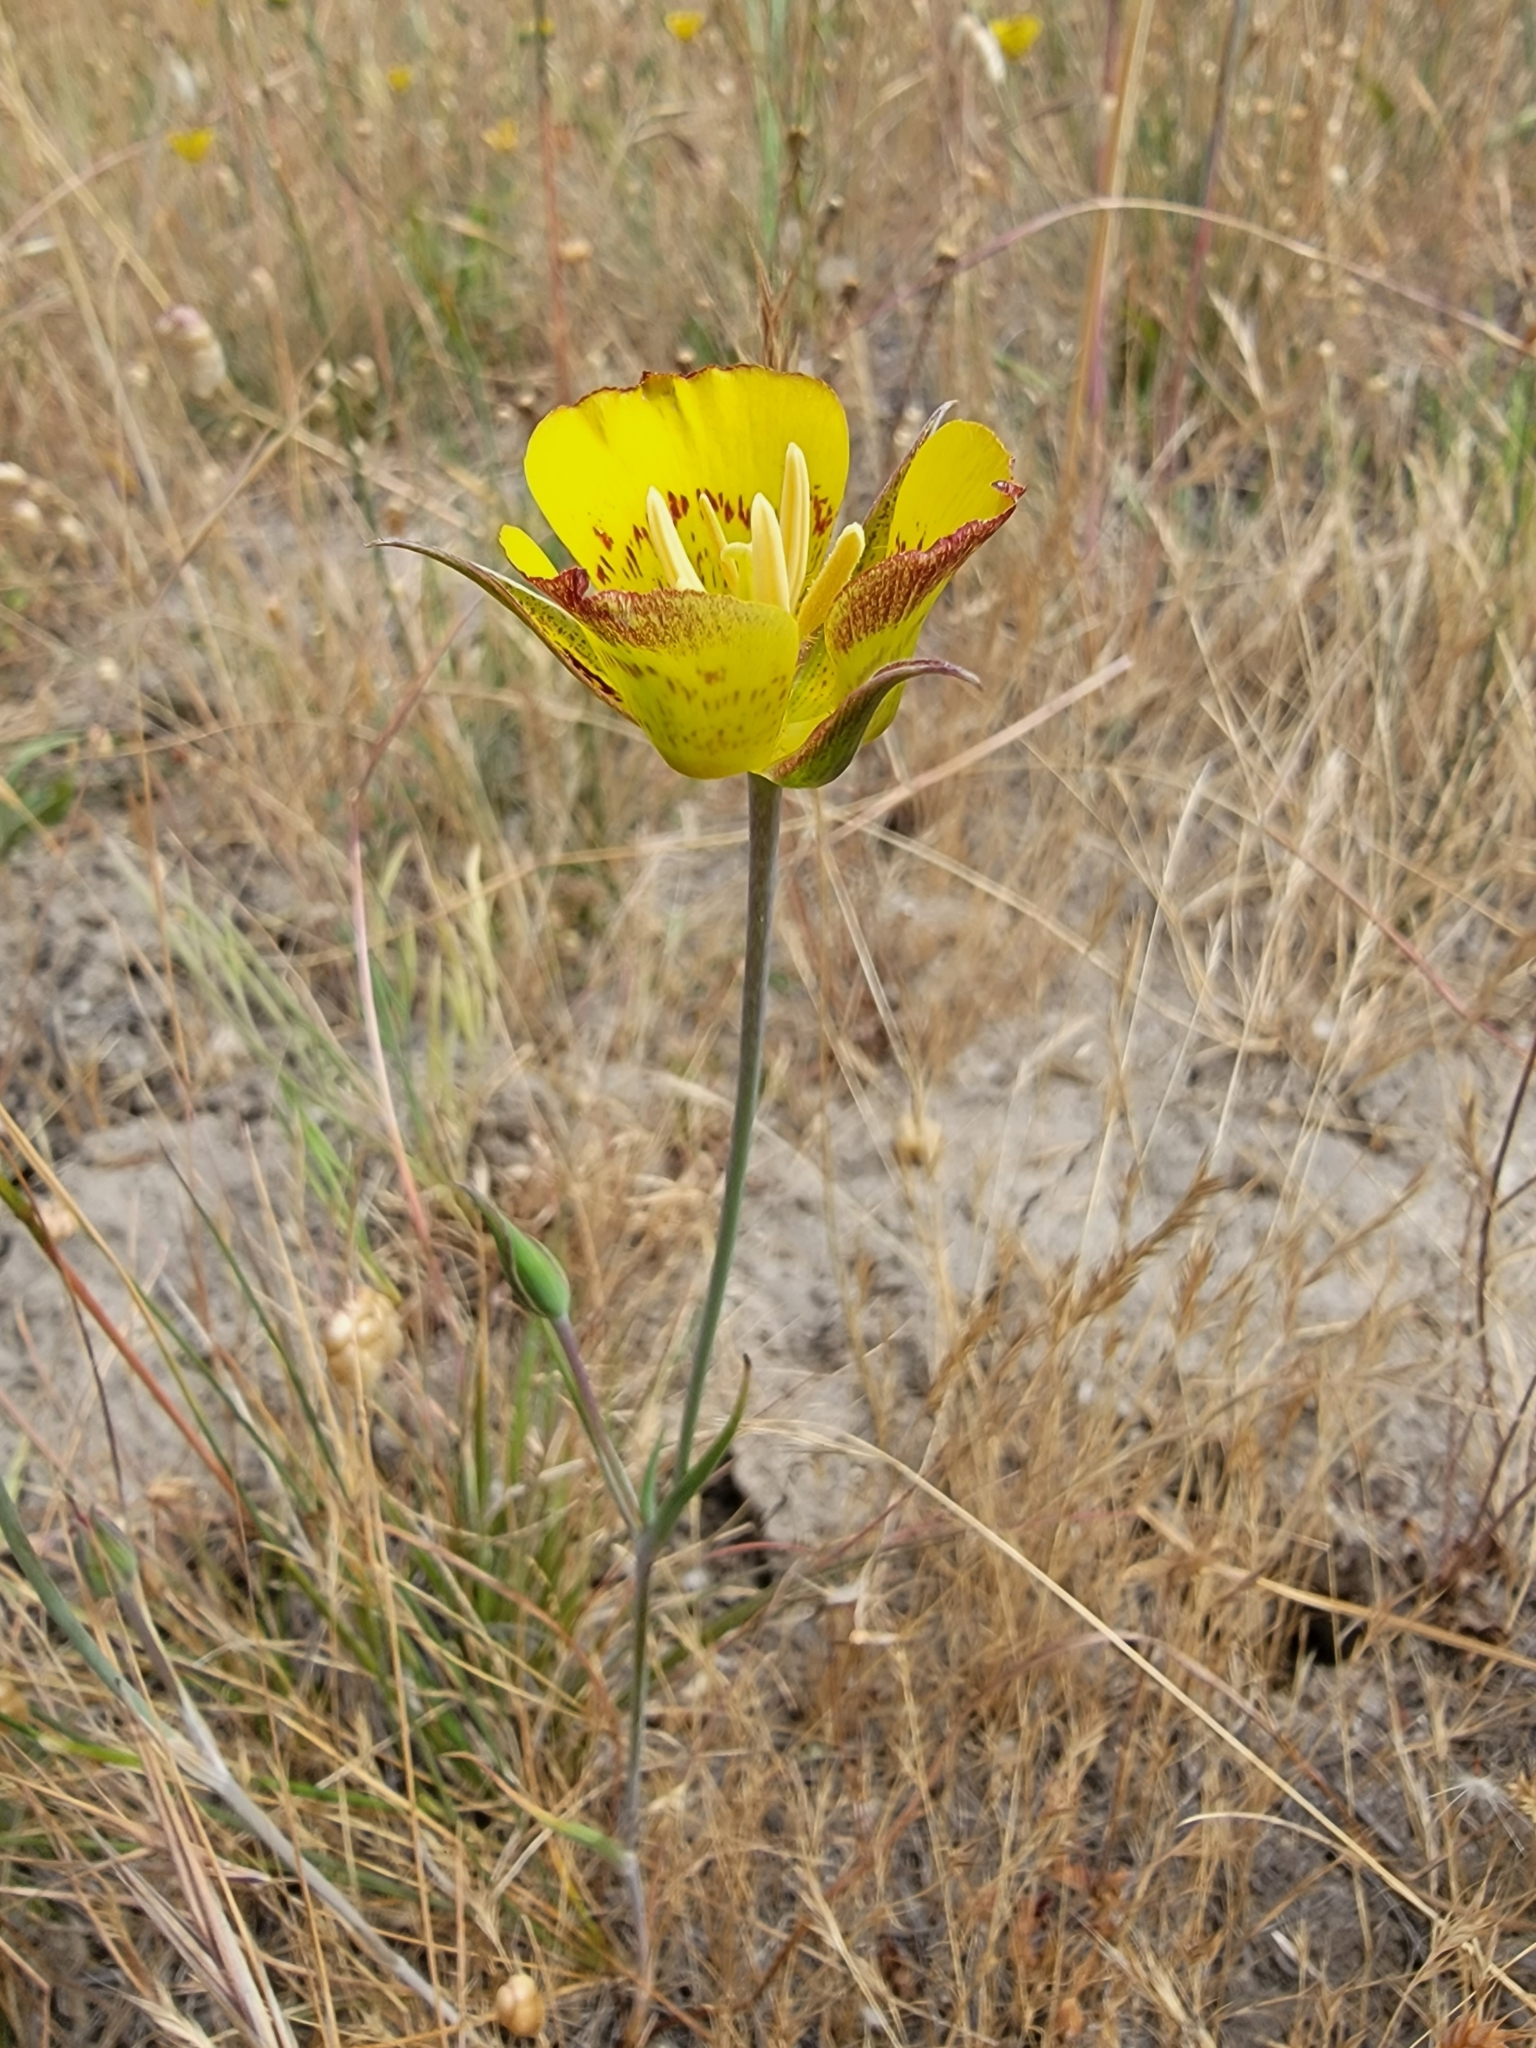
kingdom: Plantae
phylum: Tracheophyta
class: Liliopsida
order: Liliales
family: Liliaceae
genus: Calochortus
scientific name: Calochortus luteus
